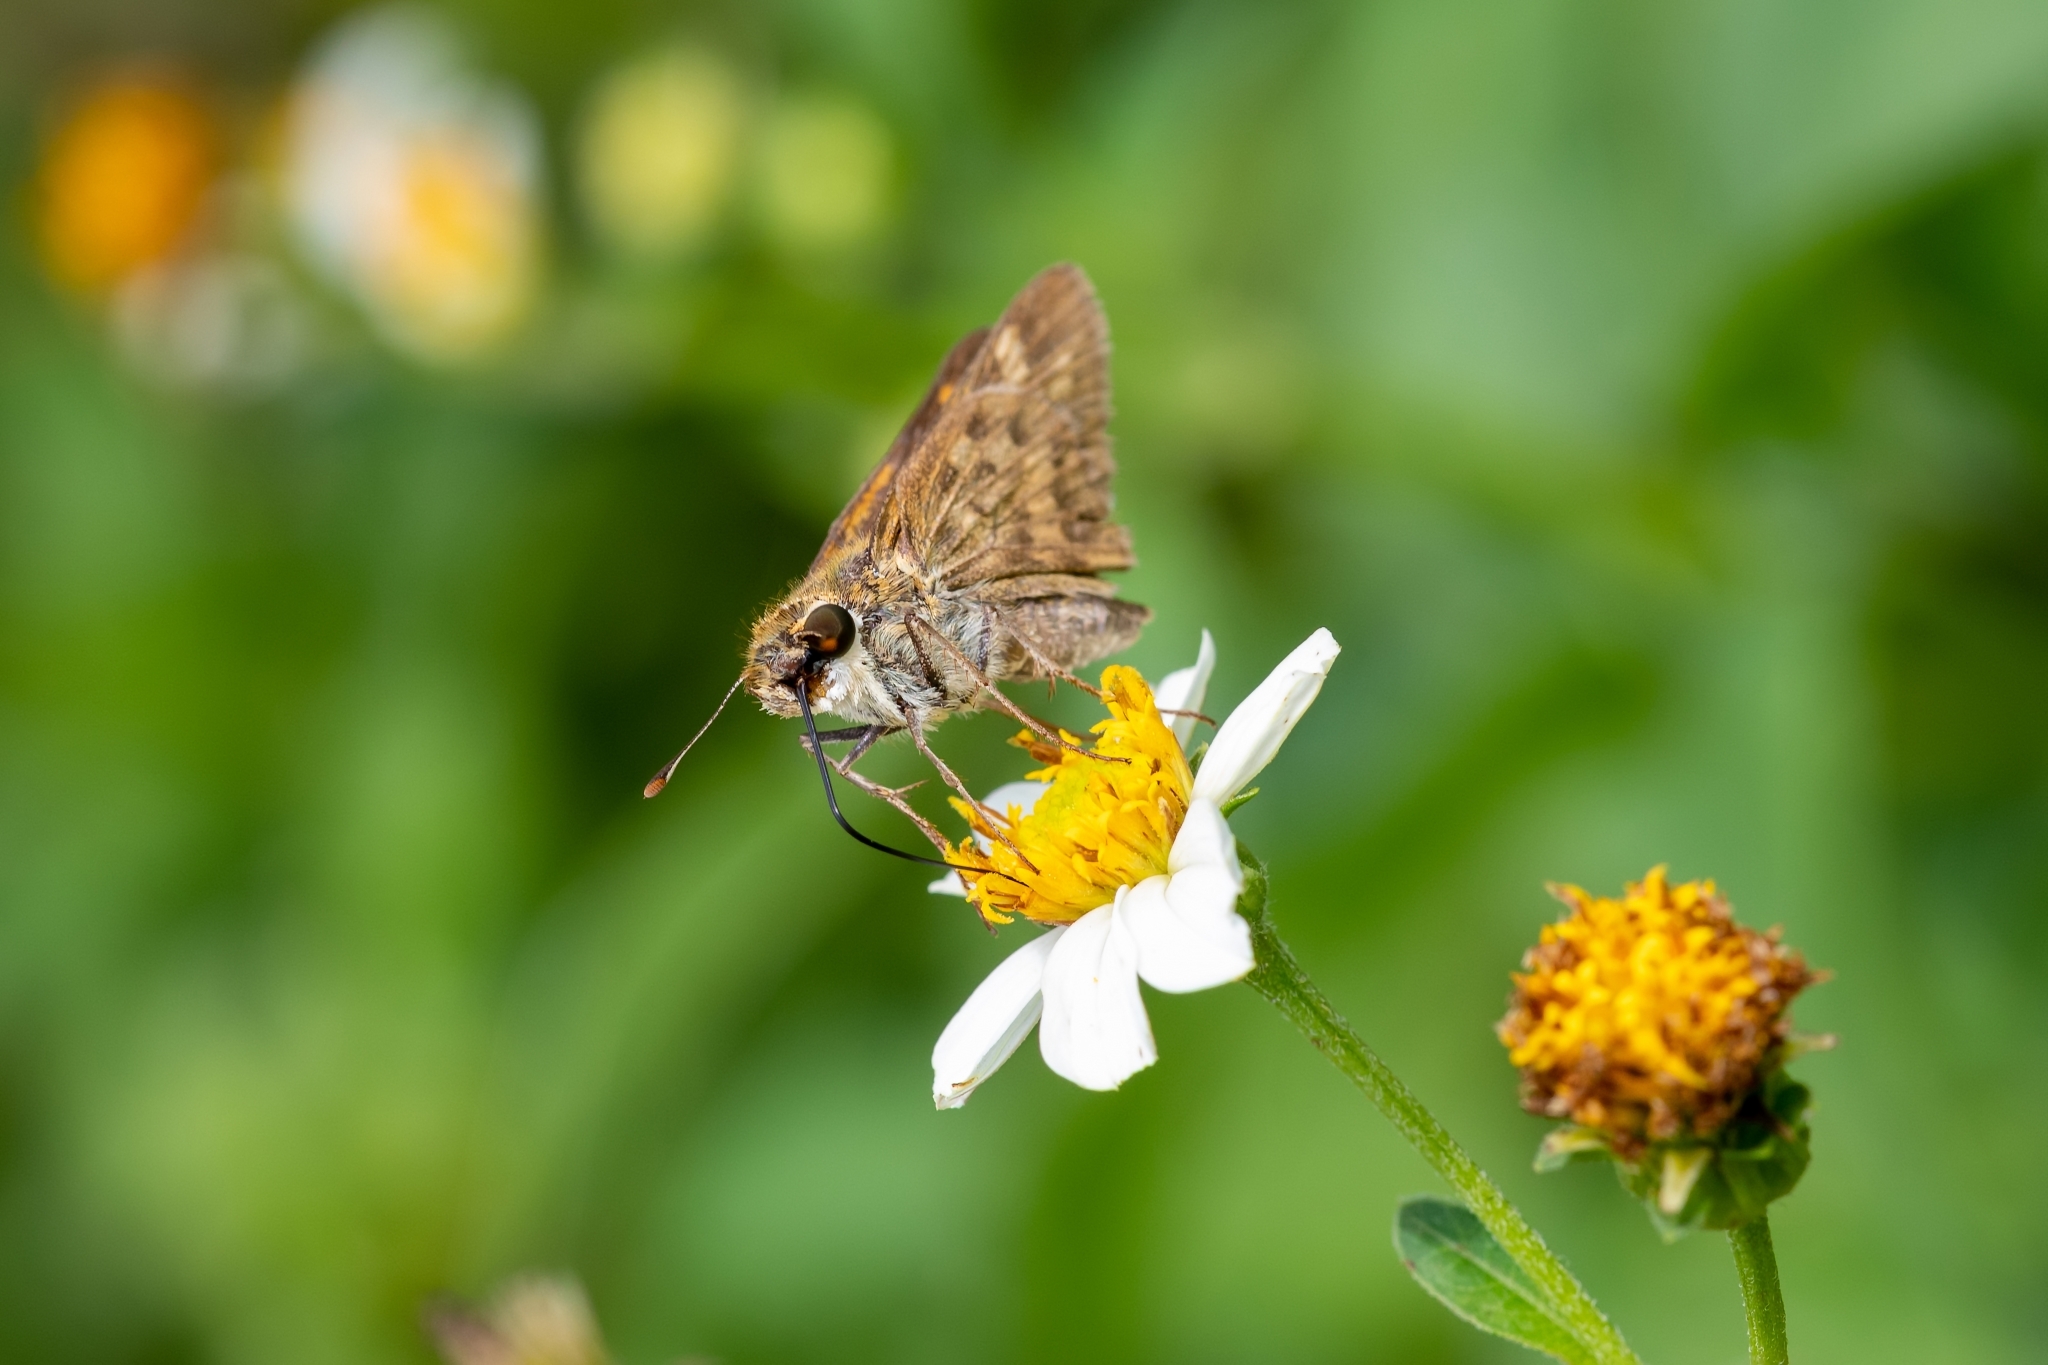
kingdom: Animalia
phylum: Arthropoda
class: Insecta
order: Lepidoptera
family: Hesperiidae
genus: Hylephila
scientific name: Hylephila phyleus
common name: Fiery skipper
